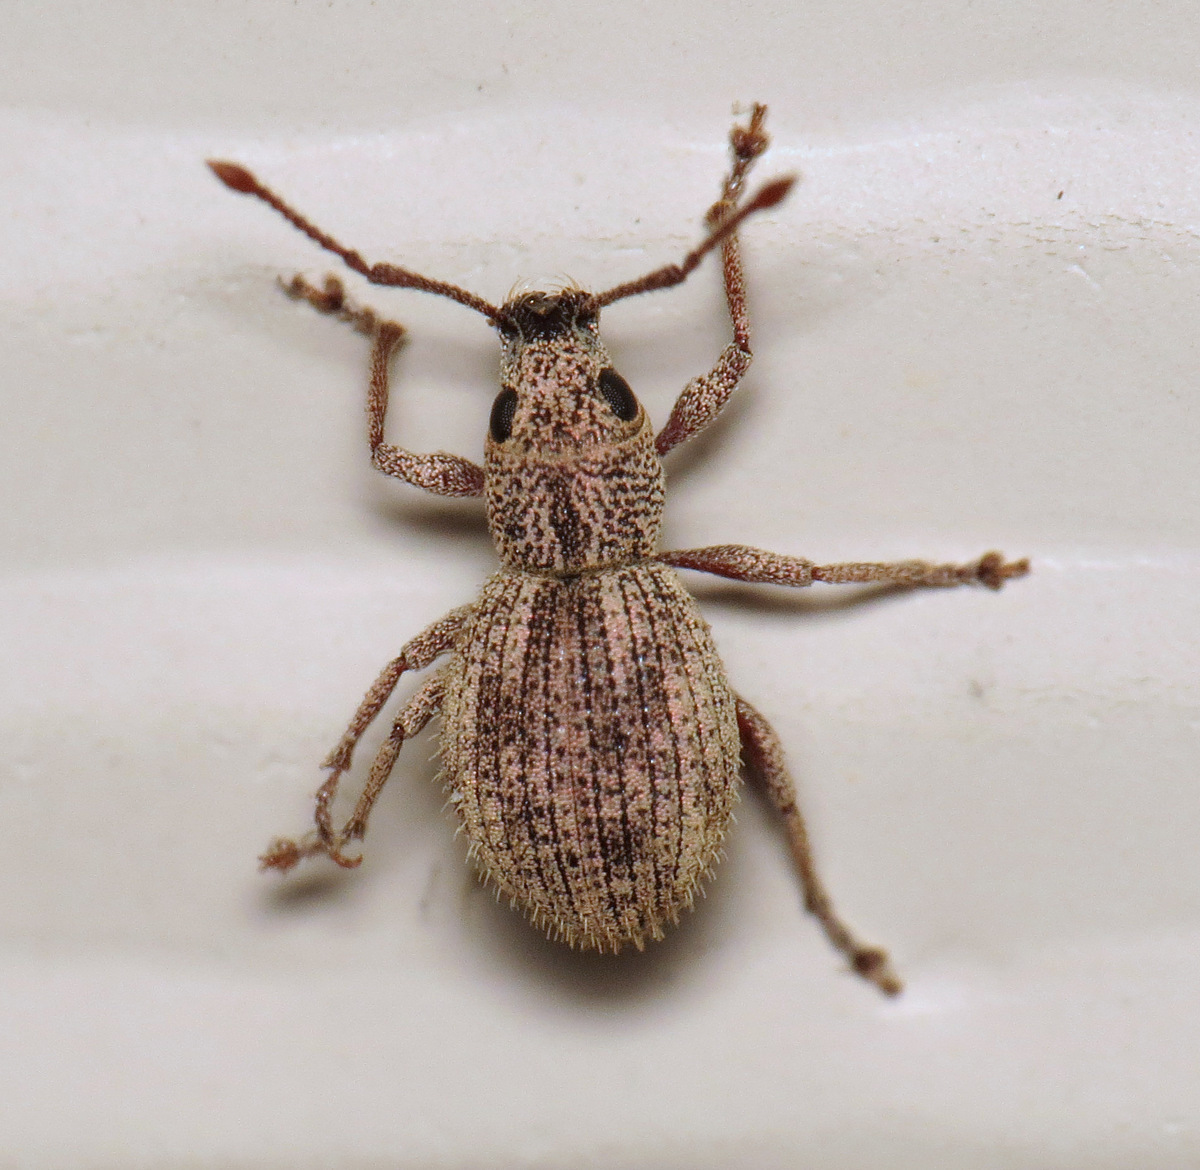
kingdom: Animalia
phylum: Arthropoda
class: Insecta
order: Coleoptera
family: Curculionidae
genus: Calomycterus
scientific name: Calomycterus setarius
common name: Weevil
